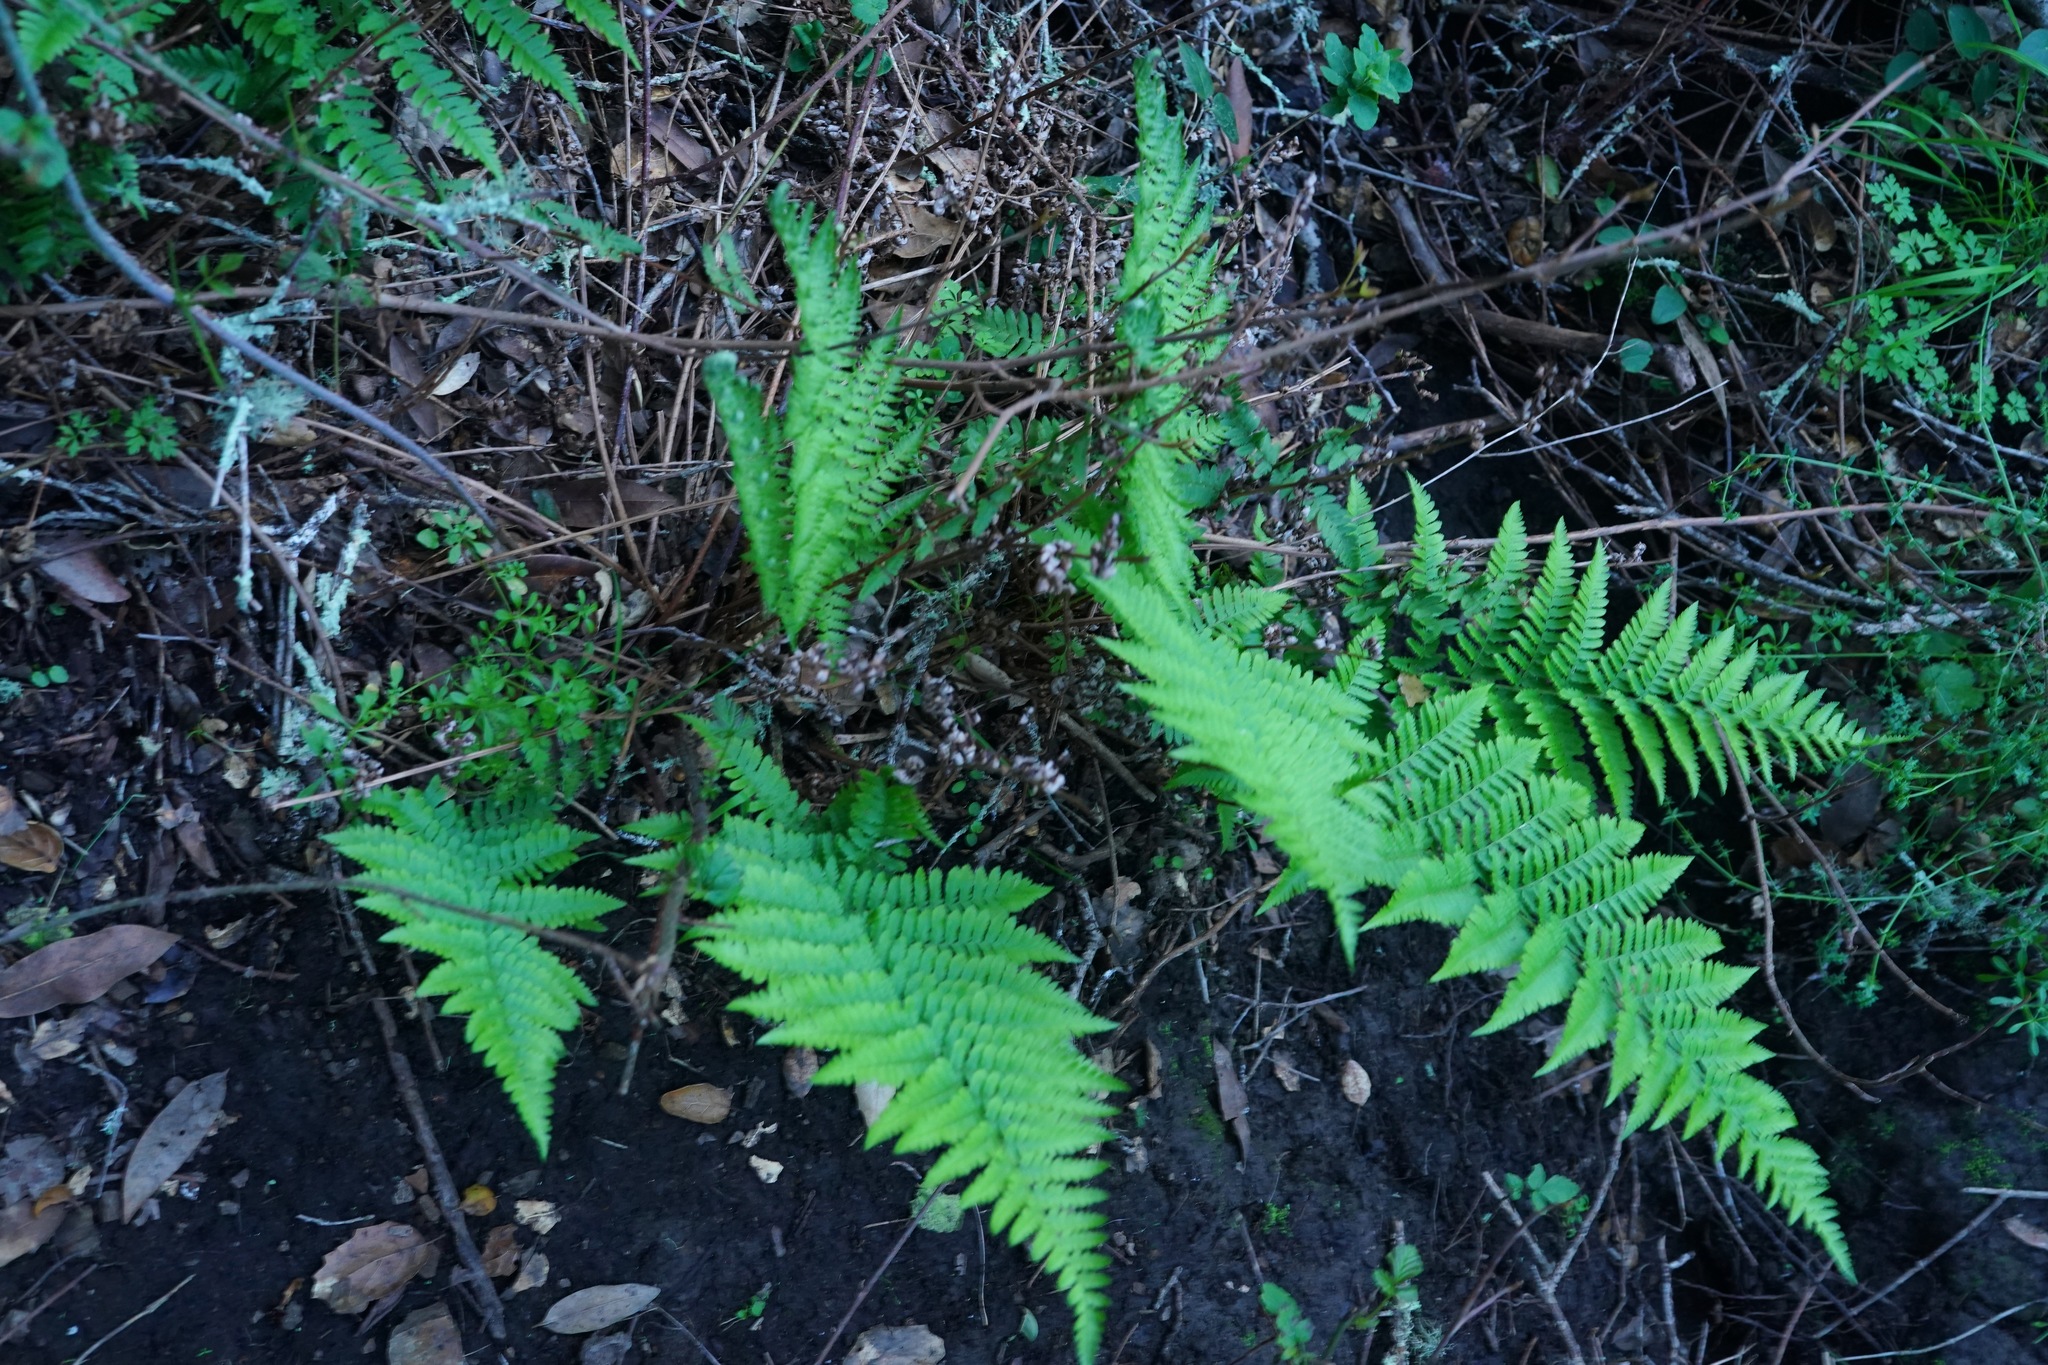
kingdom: Plantae
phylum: Tracheophyta
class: Polypodiopsida
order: Polypodiales
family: Dryopteridaceae
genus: Dryopteris
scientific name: Dryopteris arguta
